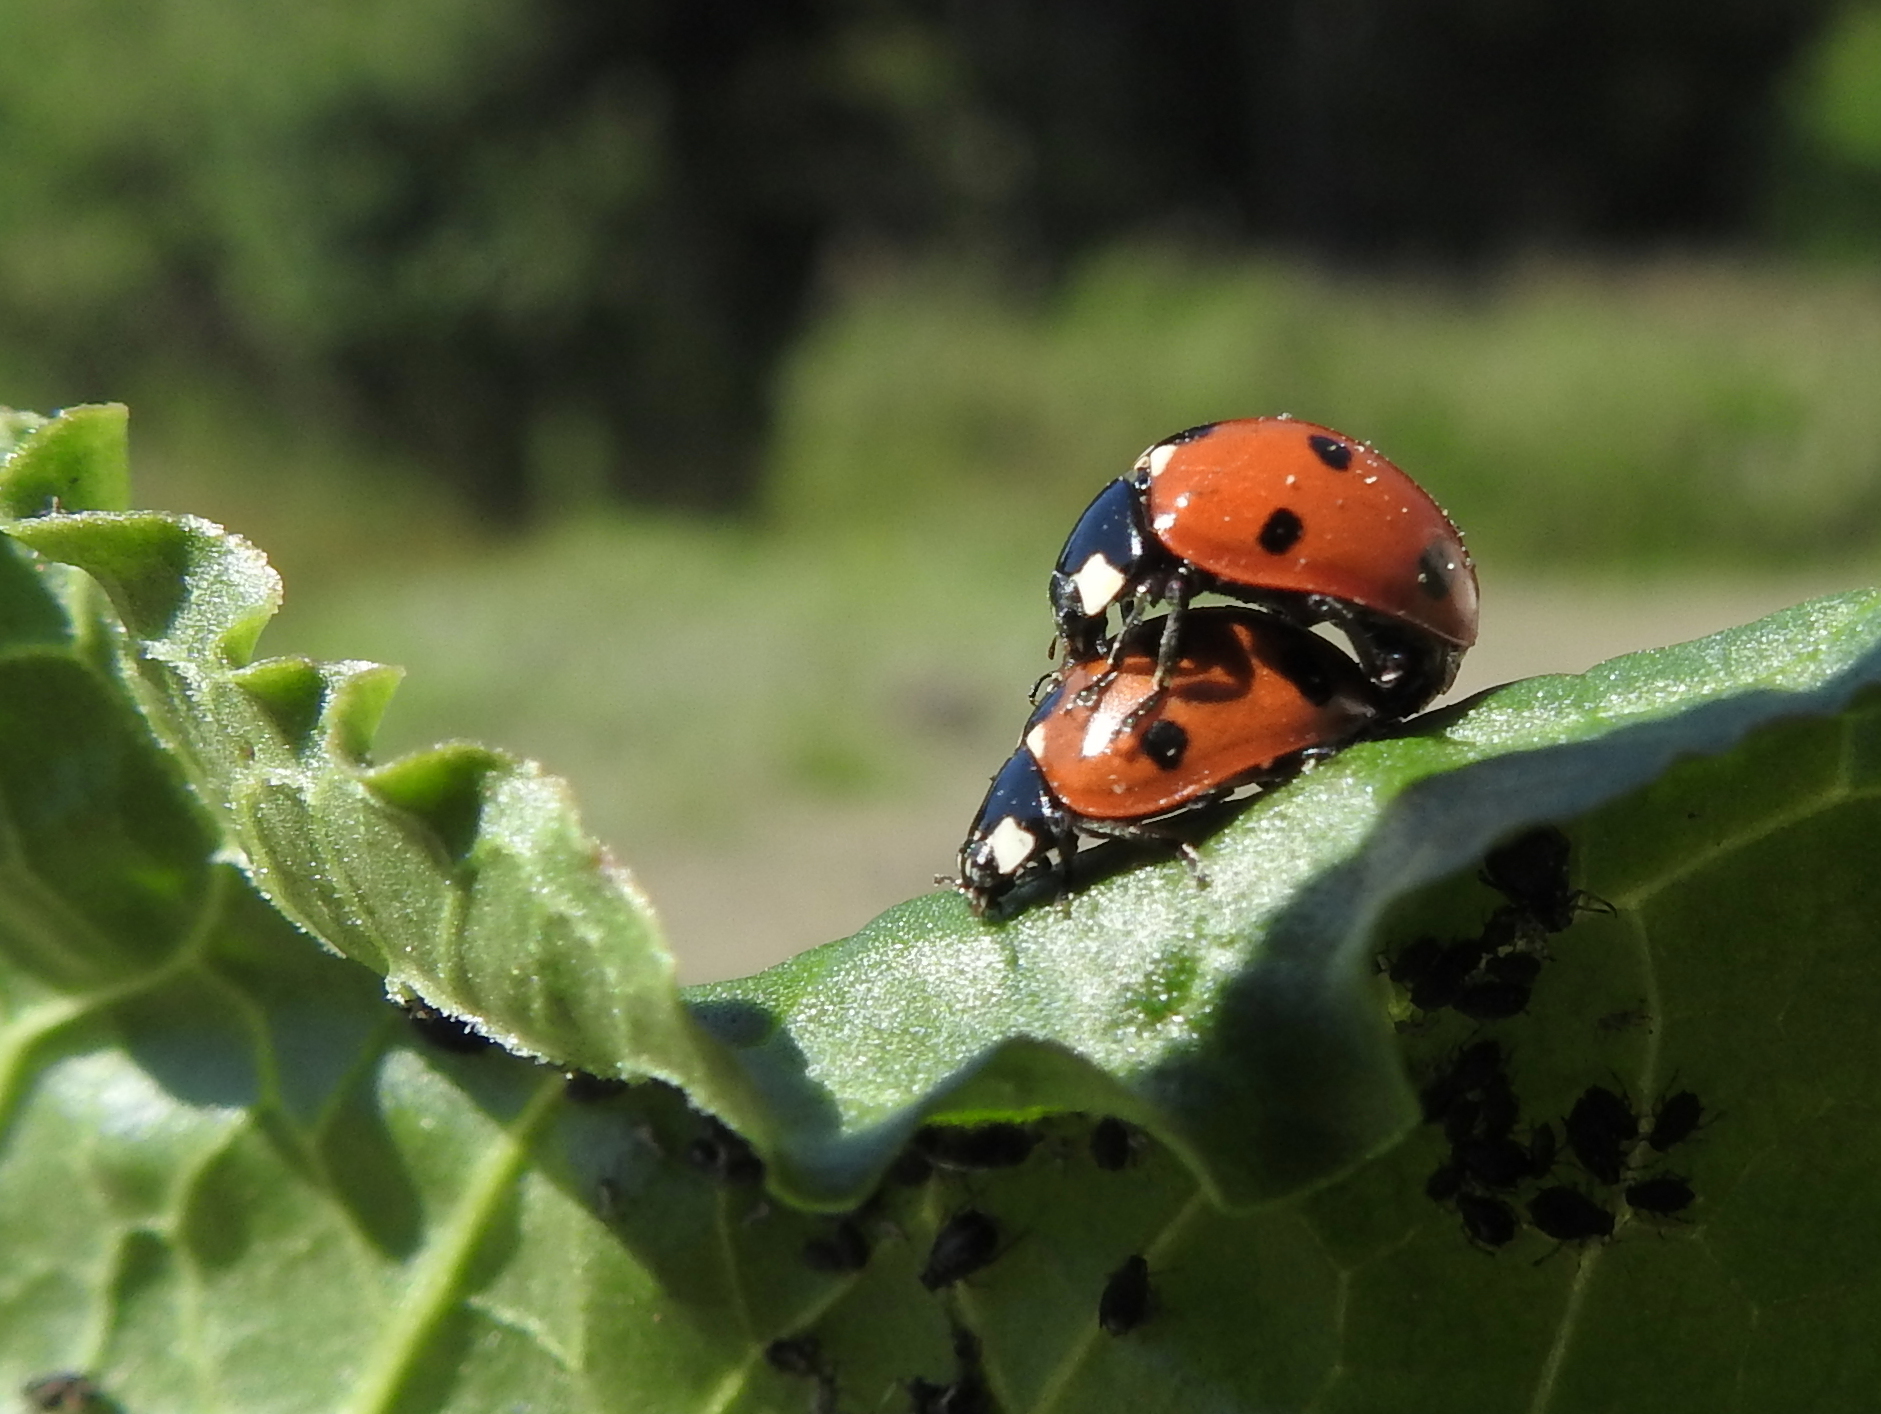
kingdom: Animalia
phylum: Arthropoda
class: Insecta
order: Coleoptera
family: Coccinellidae
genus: Coccinella
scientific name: Coccinella septempunctata
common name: Sevenspotted lady beetle
